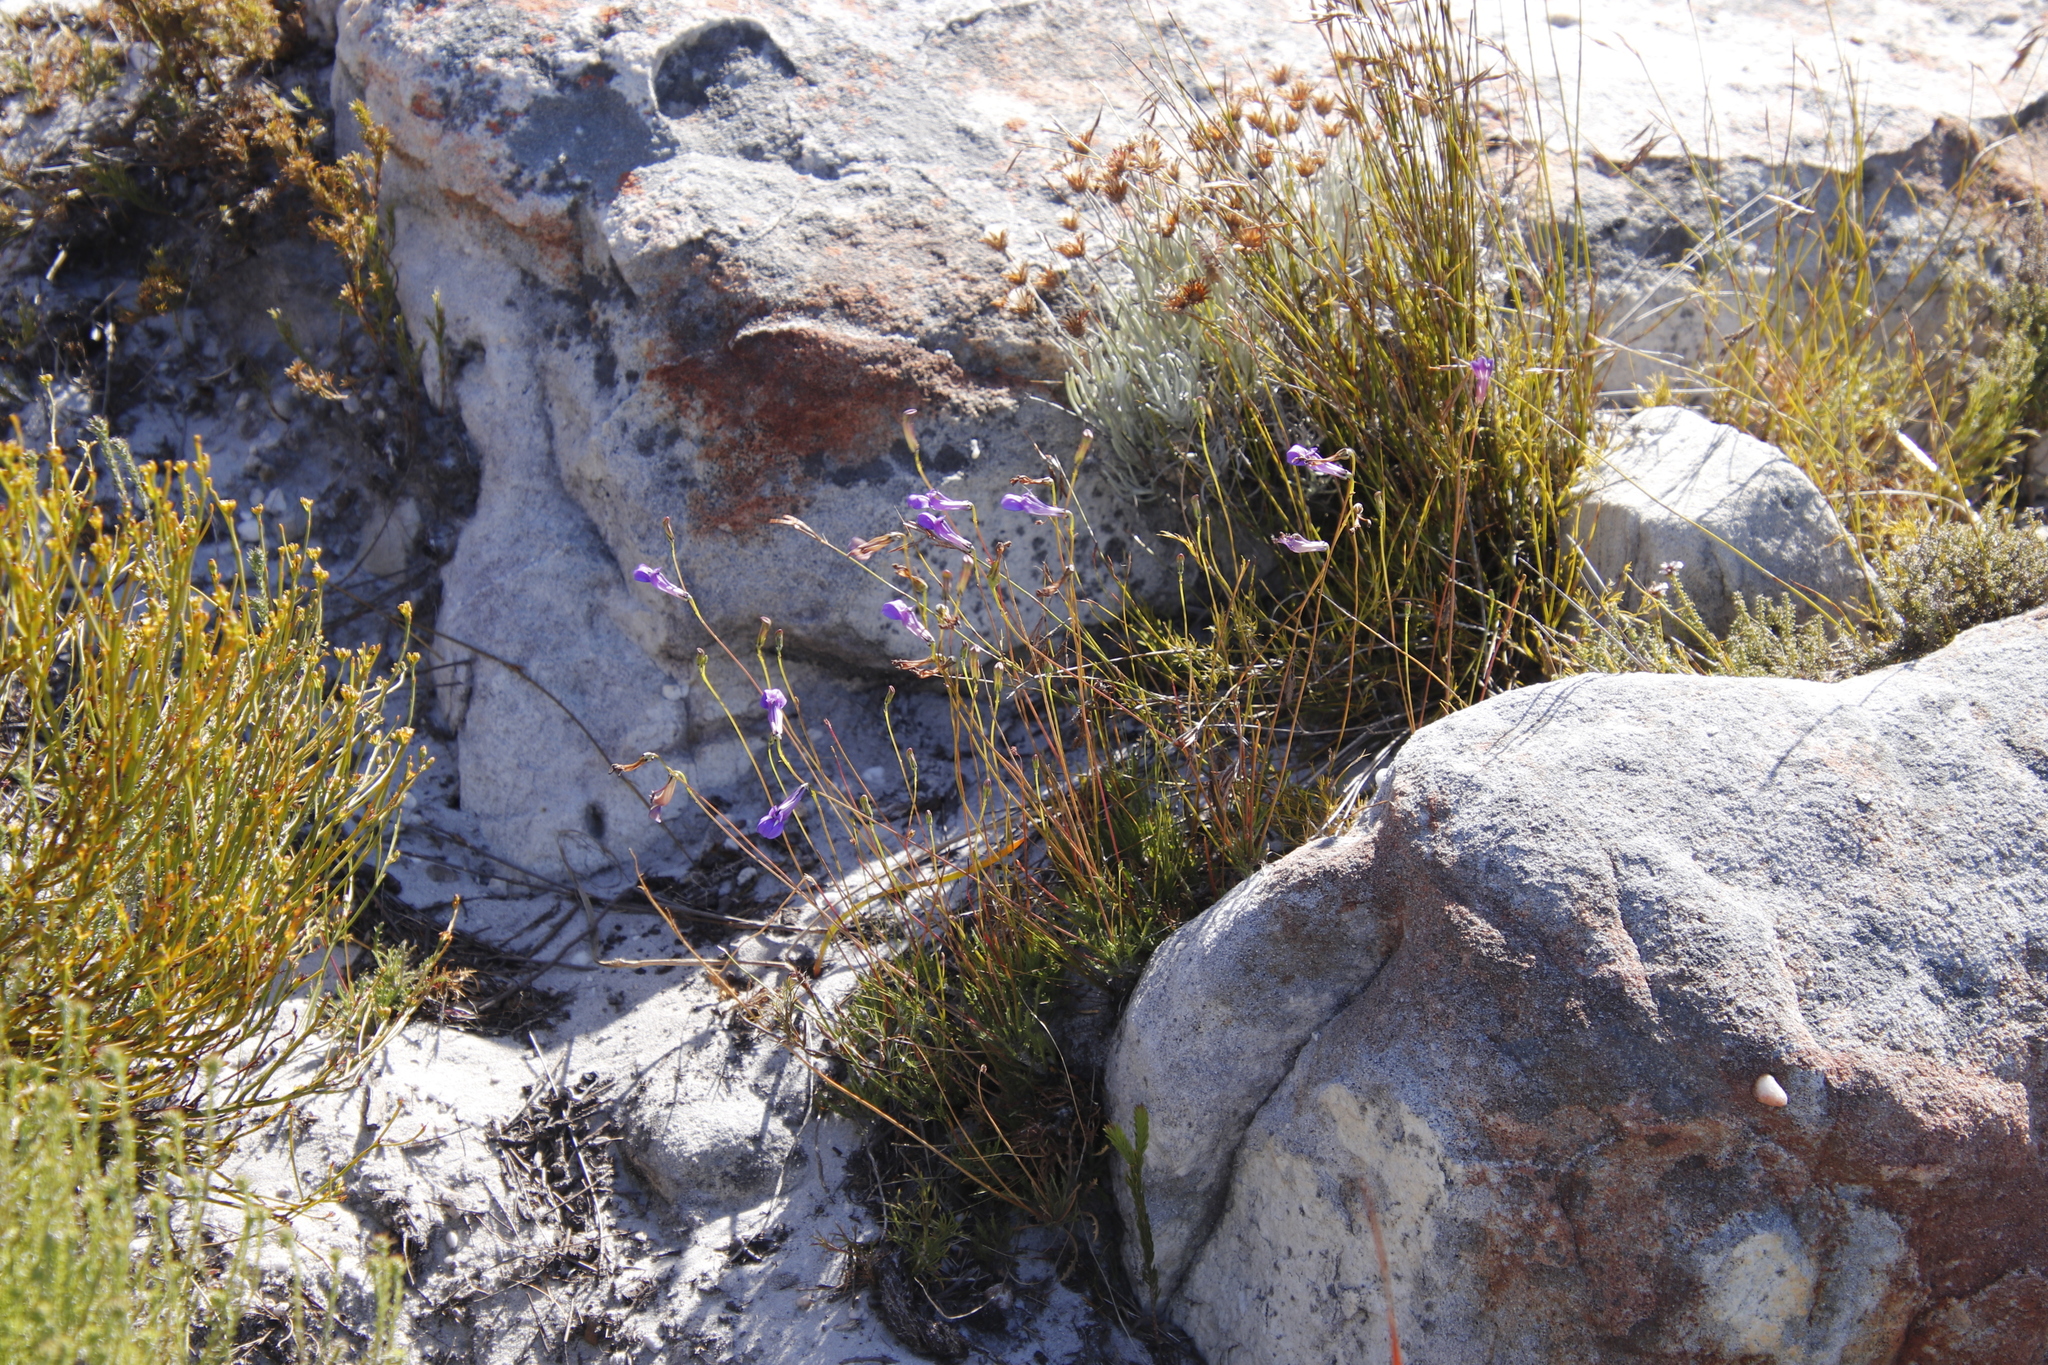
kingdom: Plantae
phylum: Tracheophyta
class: Magnoliopsida
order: Asterales
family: Campanulaceae
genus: Lobelia
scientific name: Lobelia coronopifolia
